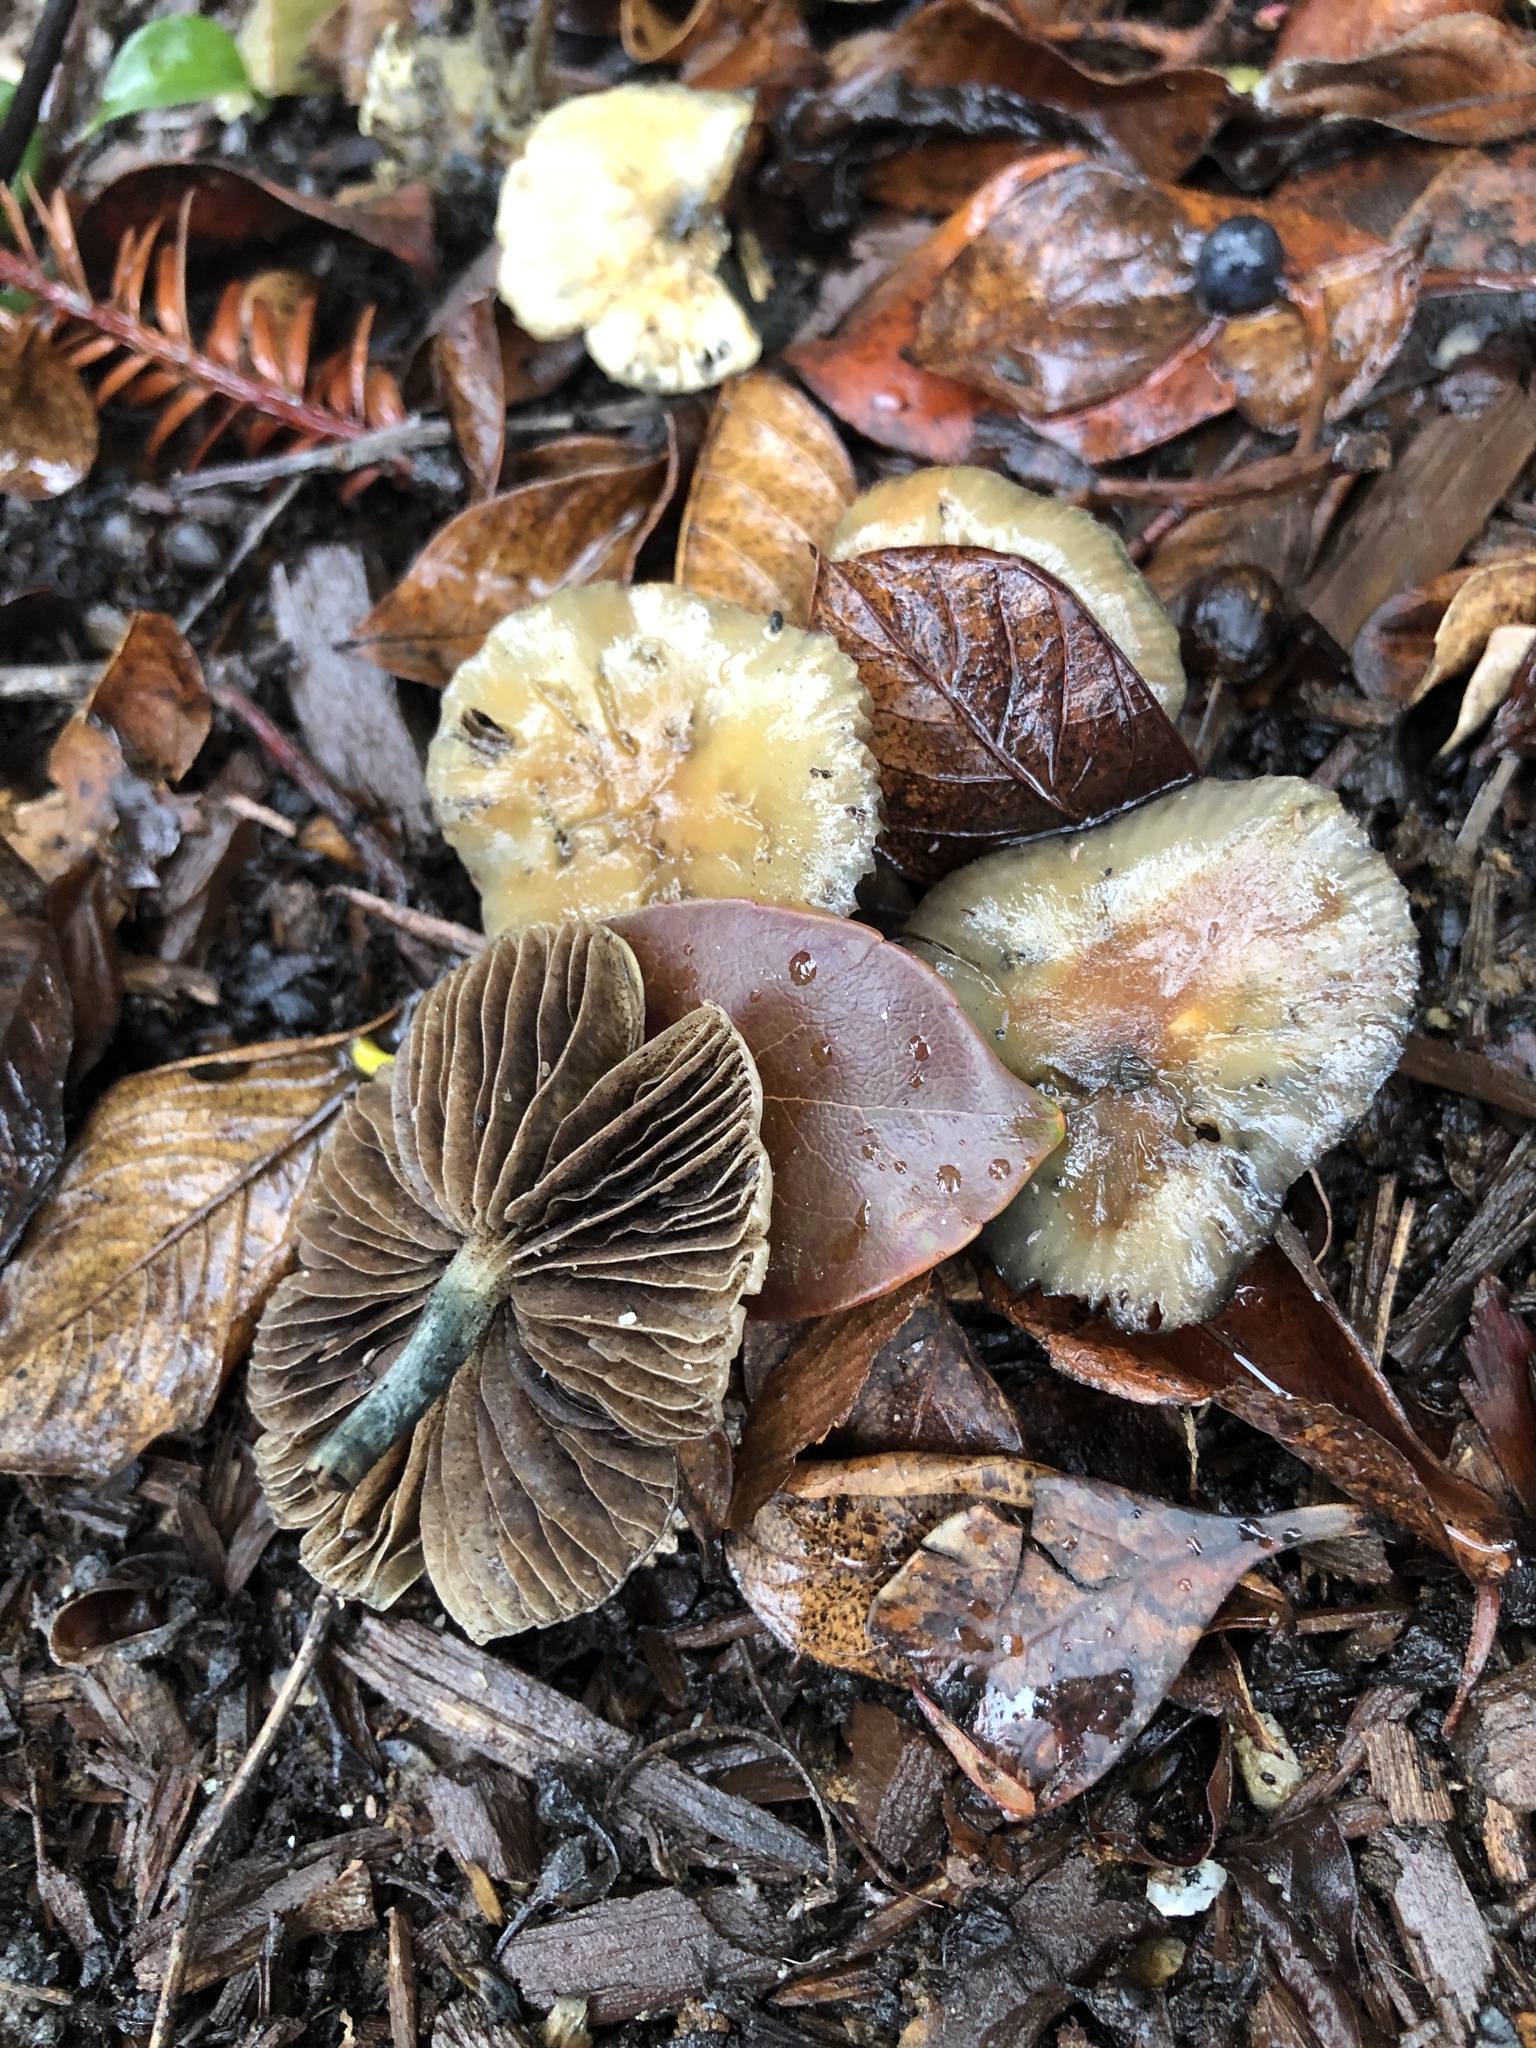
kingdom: Fungi
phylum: Basidiomycota
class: Agaricomycetes
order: Agaricales
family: Hymenogastraceae
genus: Psilocybe
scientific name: Psilocybe allenii
